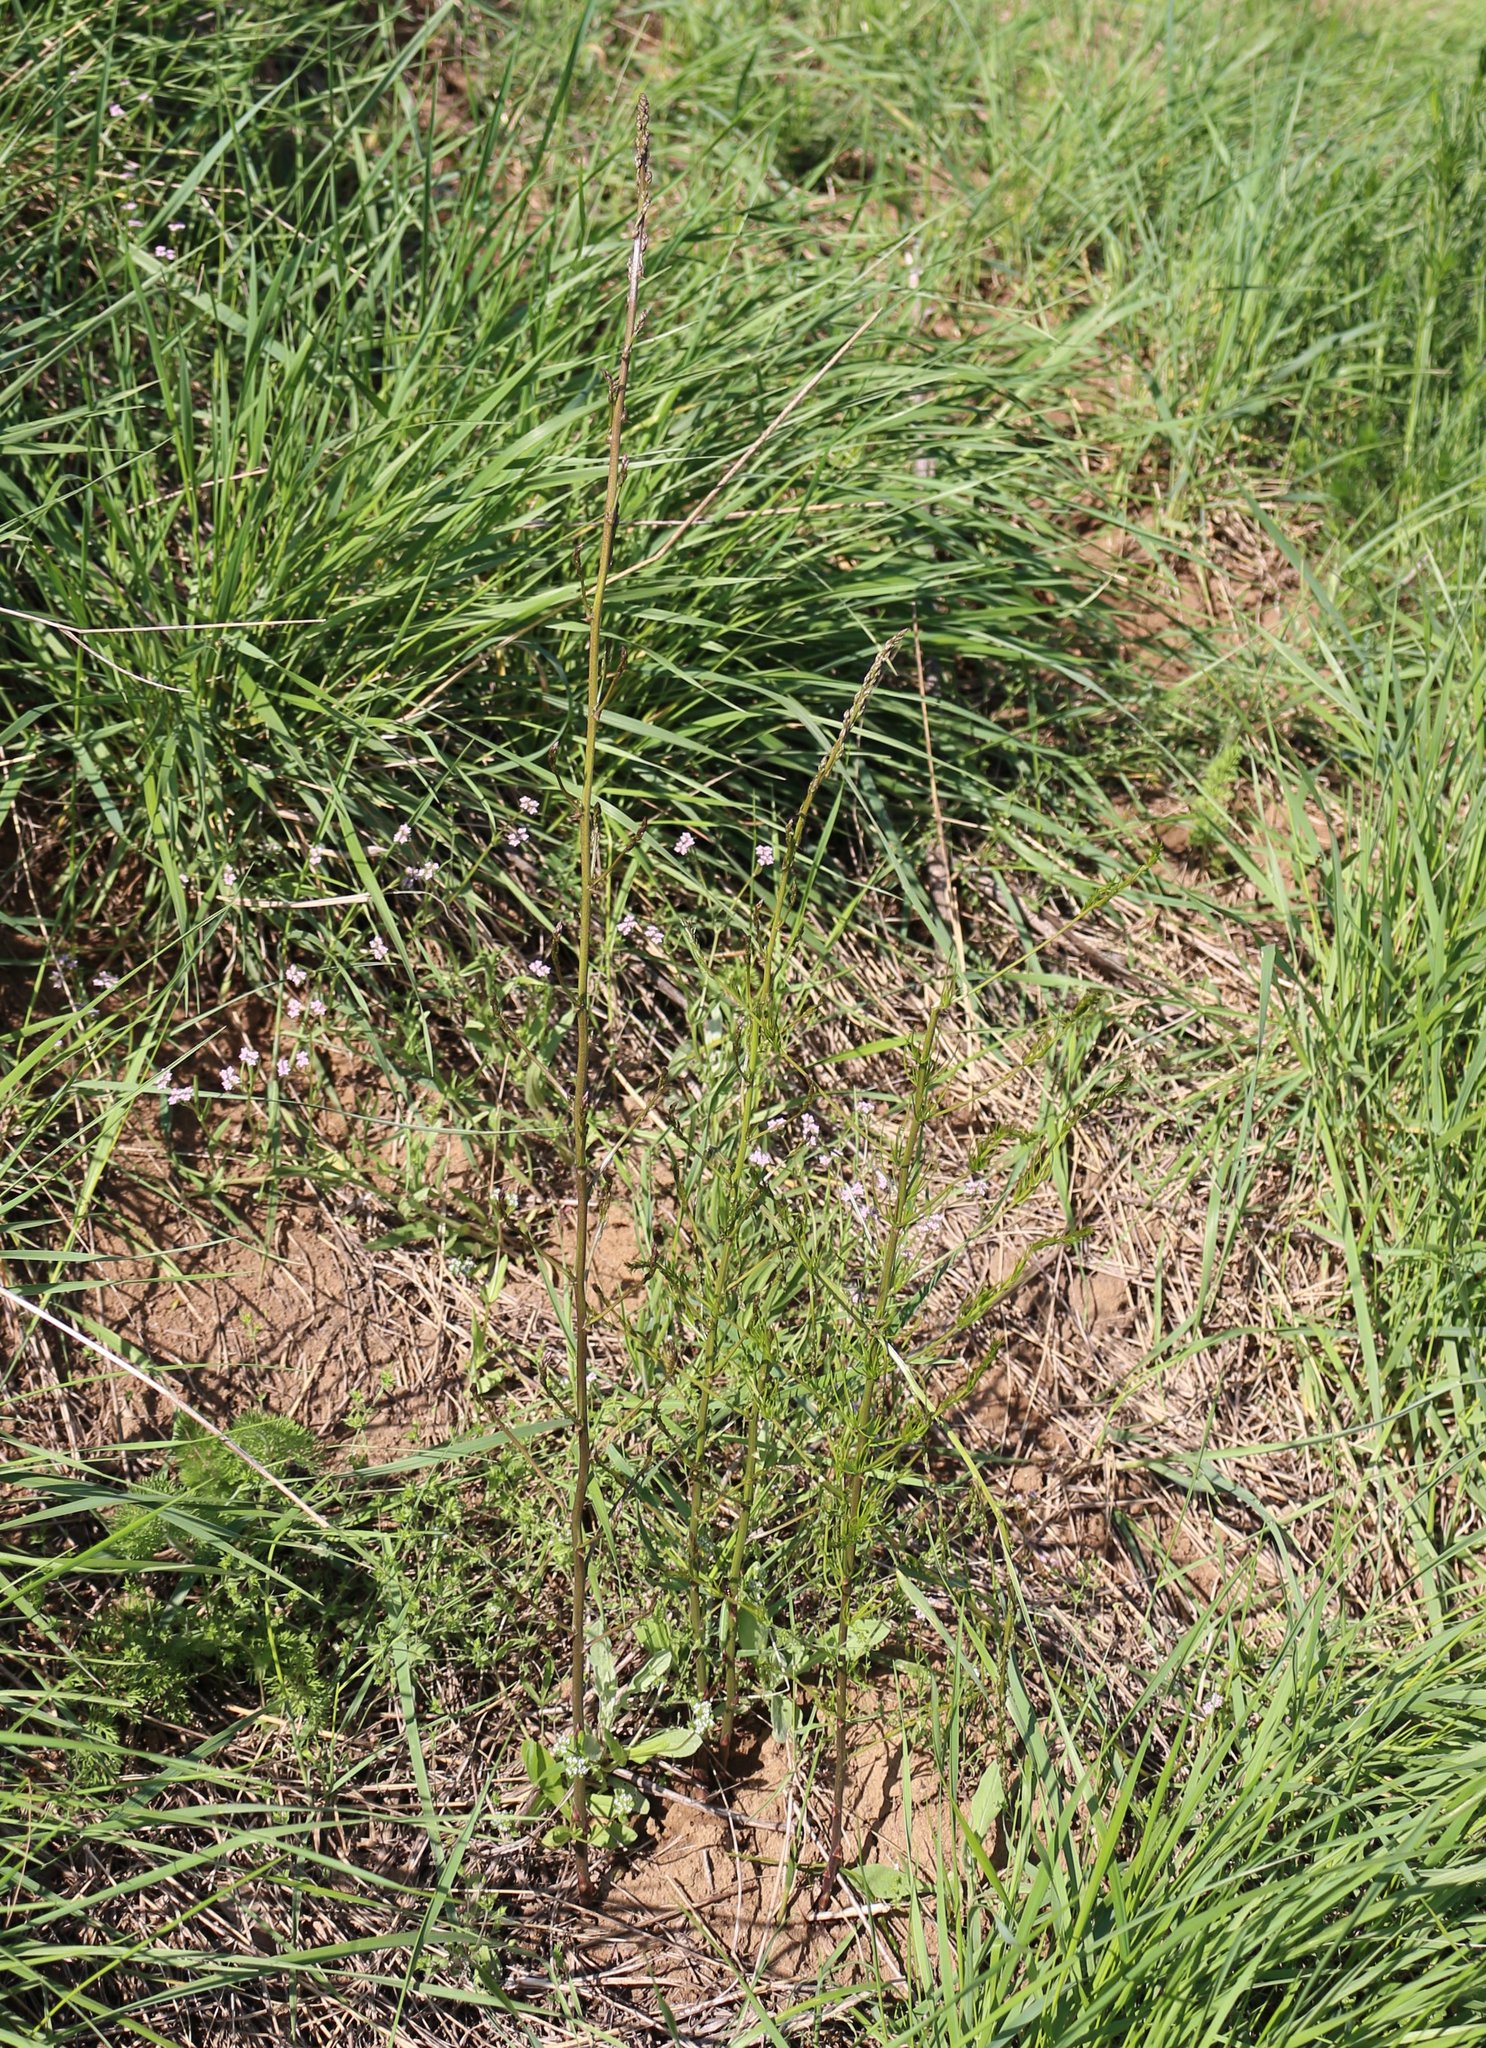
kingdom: Plantae
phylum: Tracheophyta
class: Liliopsida
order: Asparagales
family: Asparagaceae
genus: Asparagus
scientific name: Asparagus verticillatus
